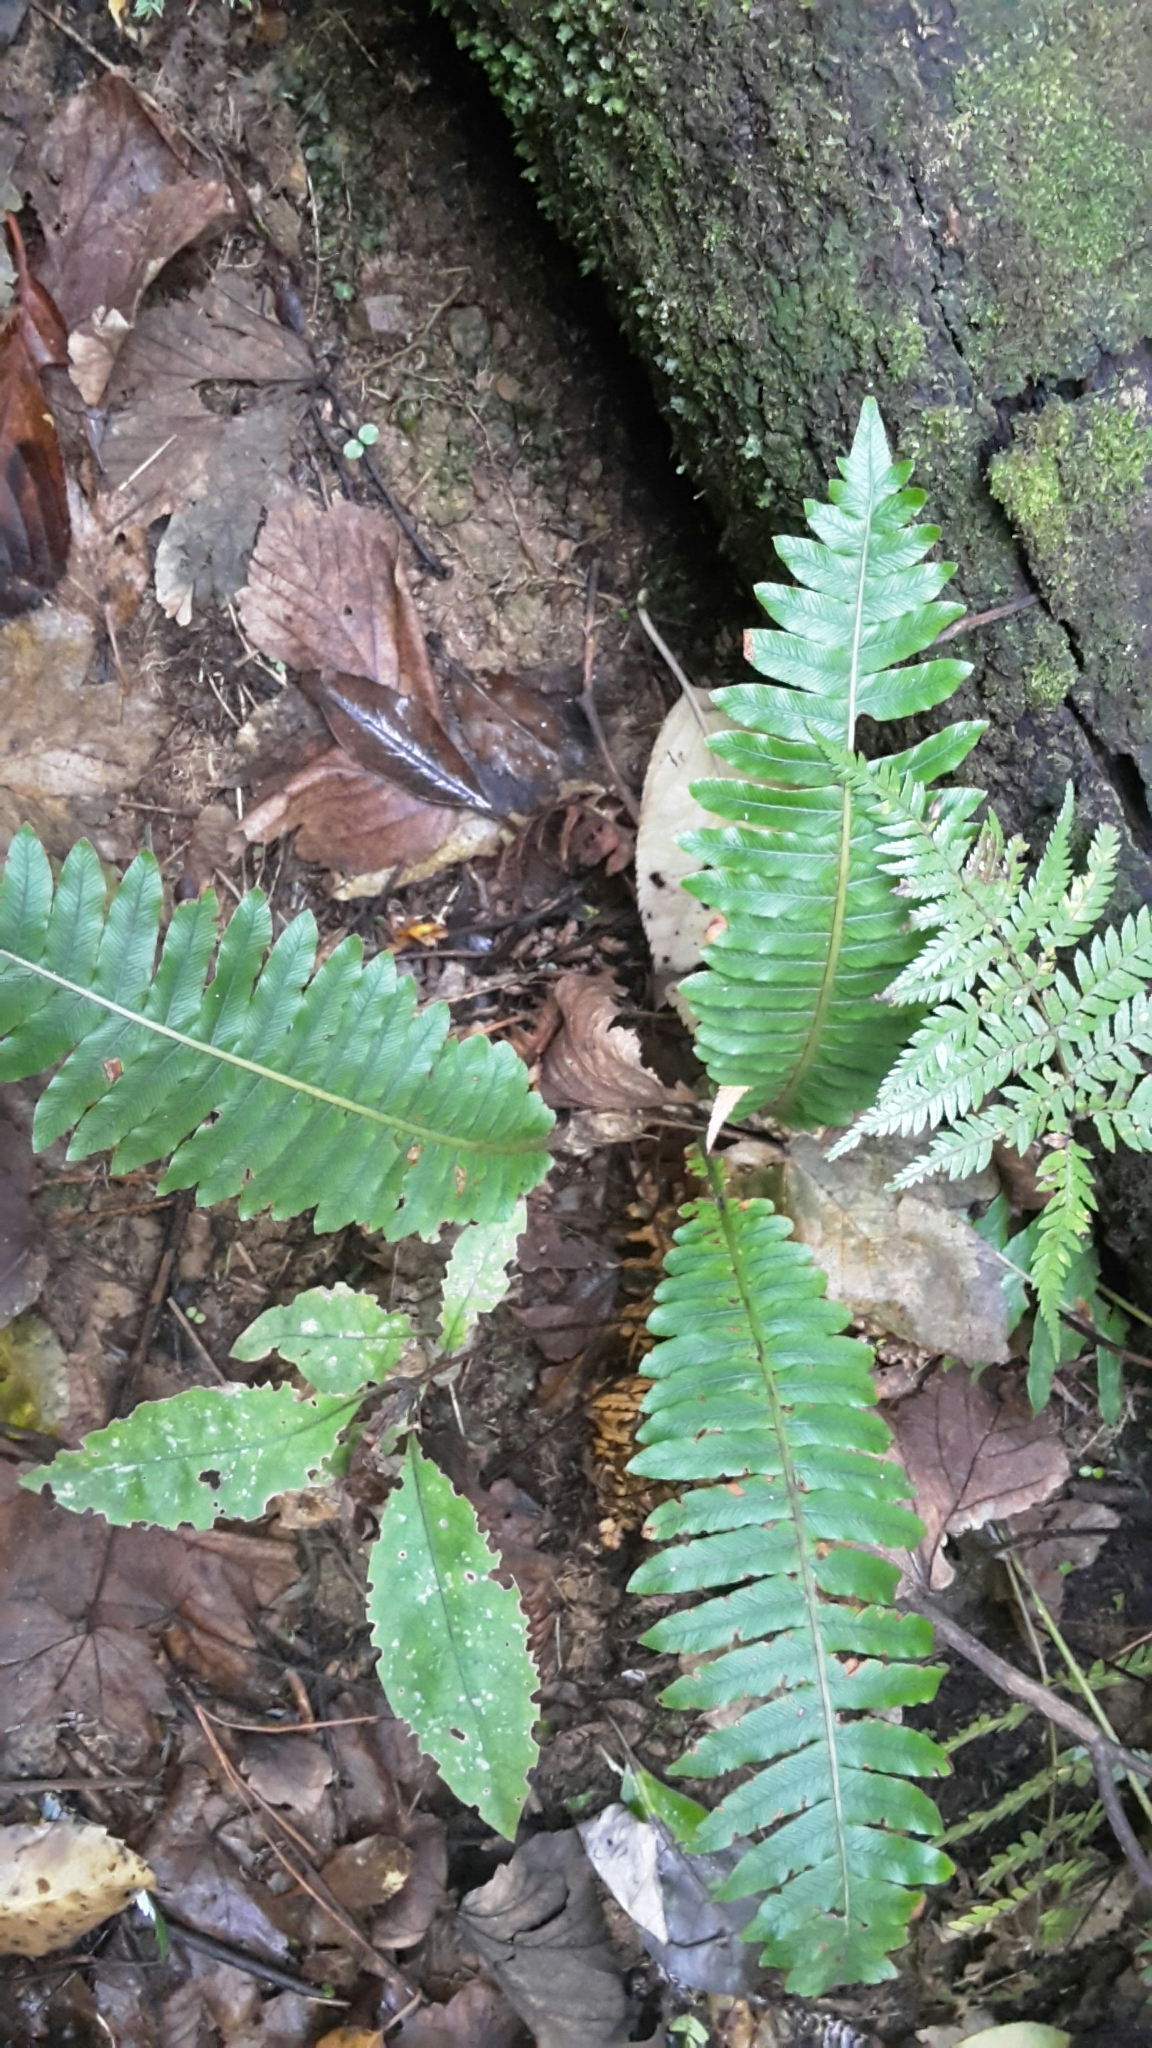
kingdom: Plantae
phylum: Tracheophyta
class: Polypodiopsida
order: Polypodiales
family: Blechnaceae
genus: Lomaria
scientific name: Lomaria discolor
